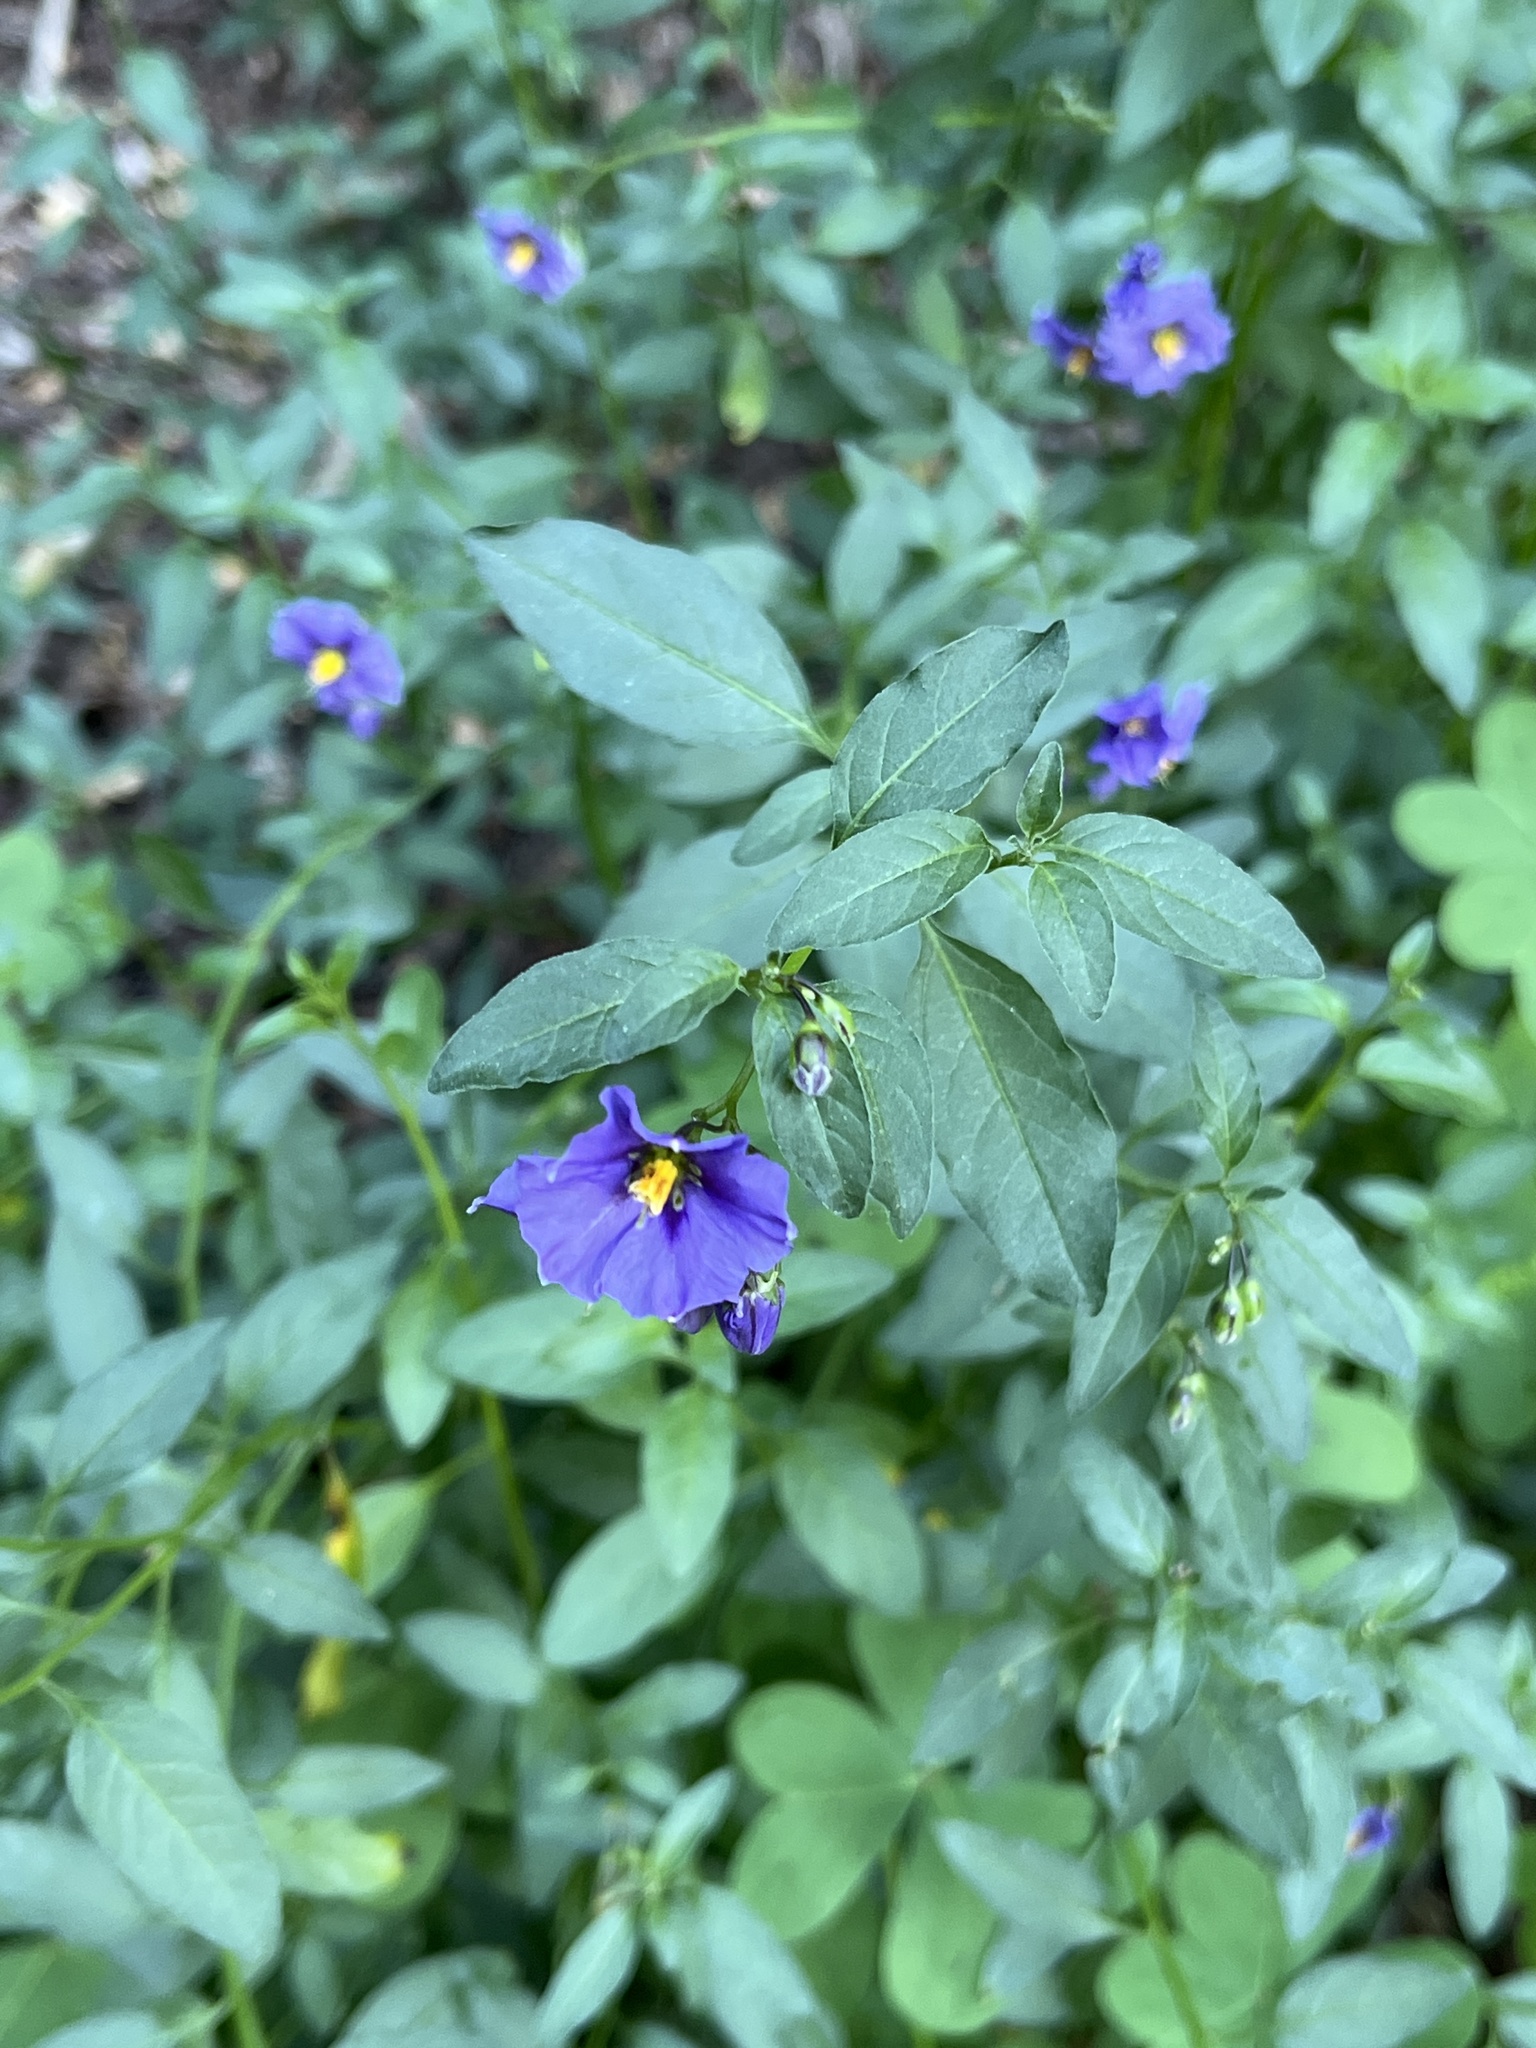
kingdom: Plantae
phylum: Tracheophyta
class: Magnoliopsida
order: Solanales
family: Solanaceae
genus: Solanum
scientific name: Solanum umbelliferum
